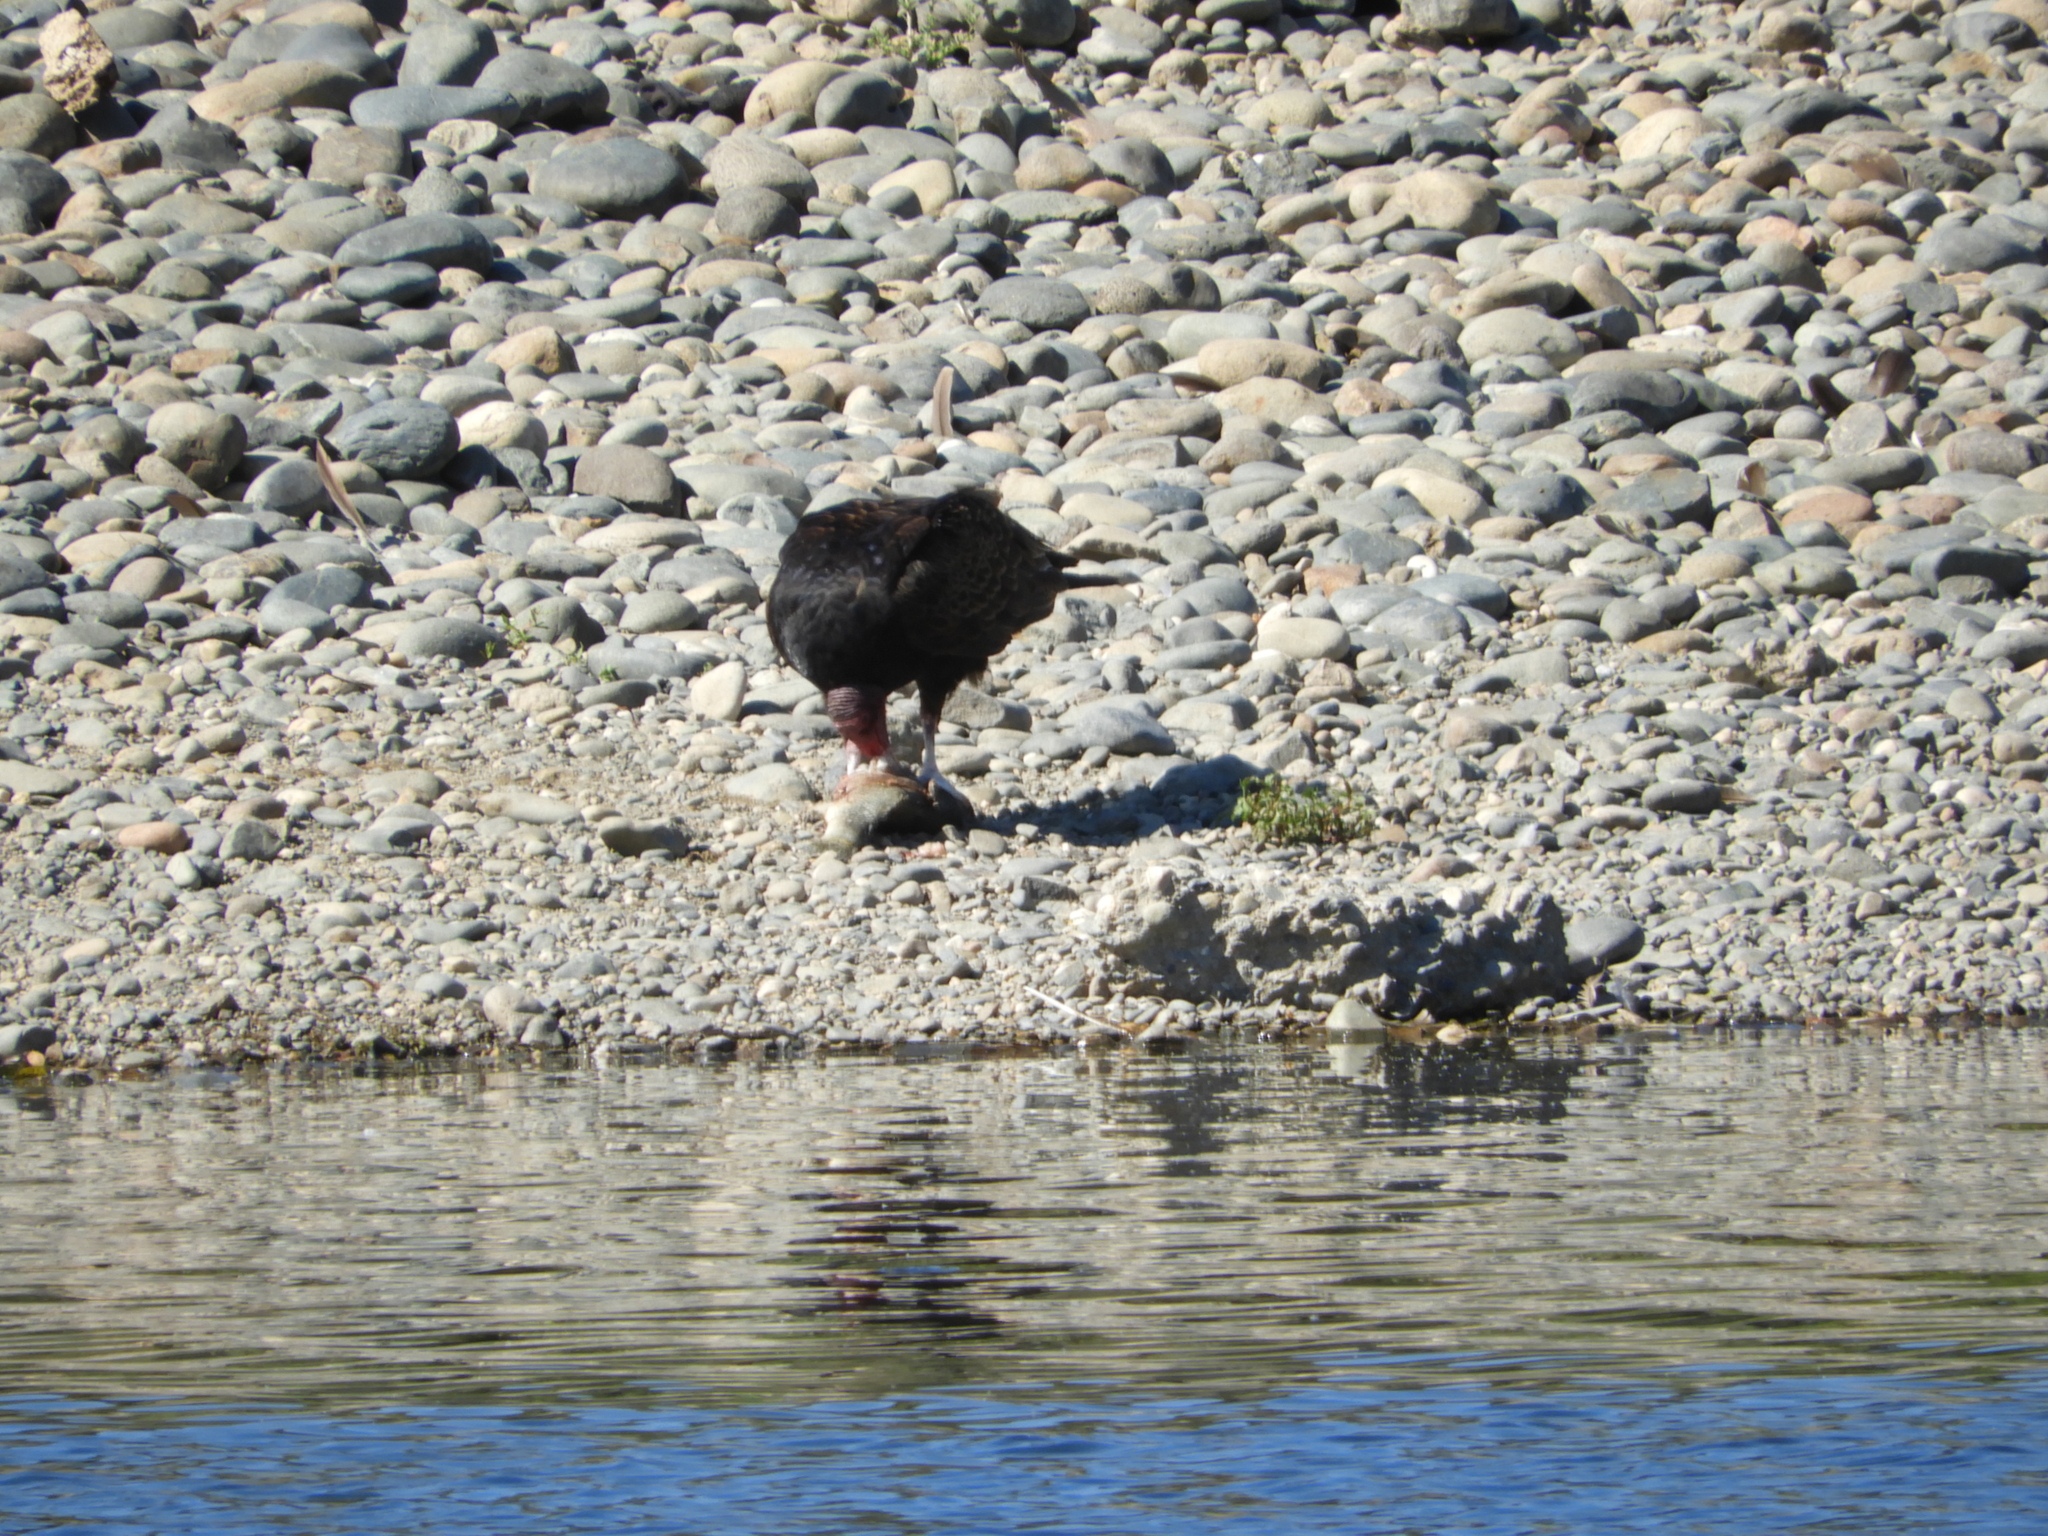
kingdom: Animalia
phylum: Chordata
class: Aves
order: Accipitriformes
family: Cathartidae
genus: Cathartes
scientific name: Cathartes aura
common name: Turkey vulture
